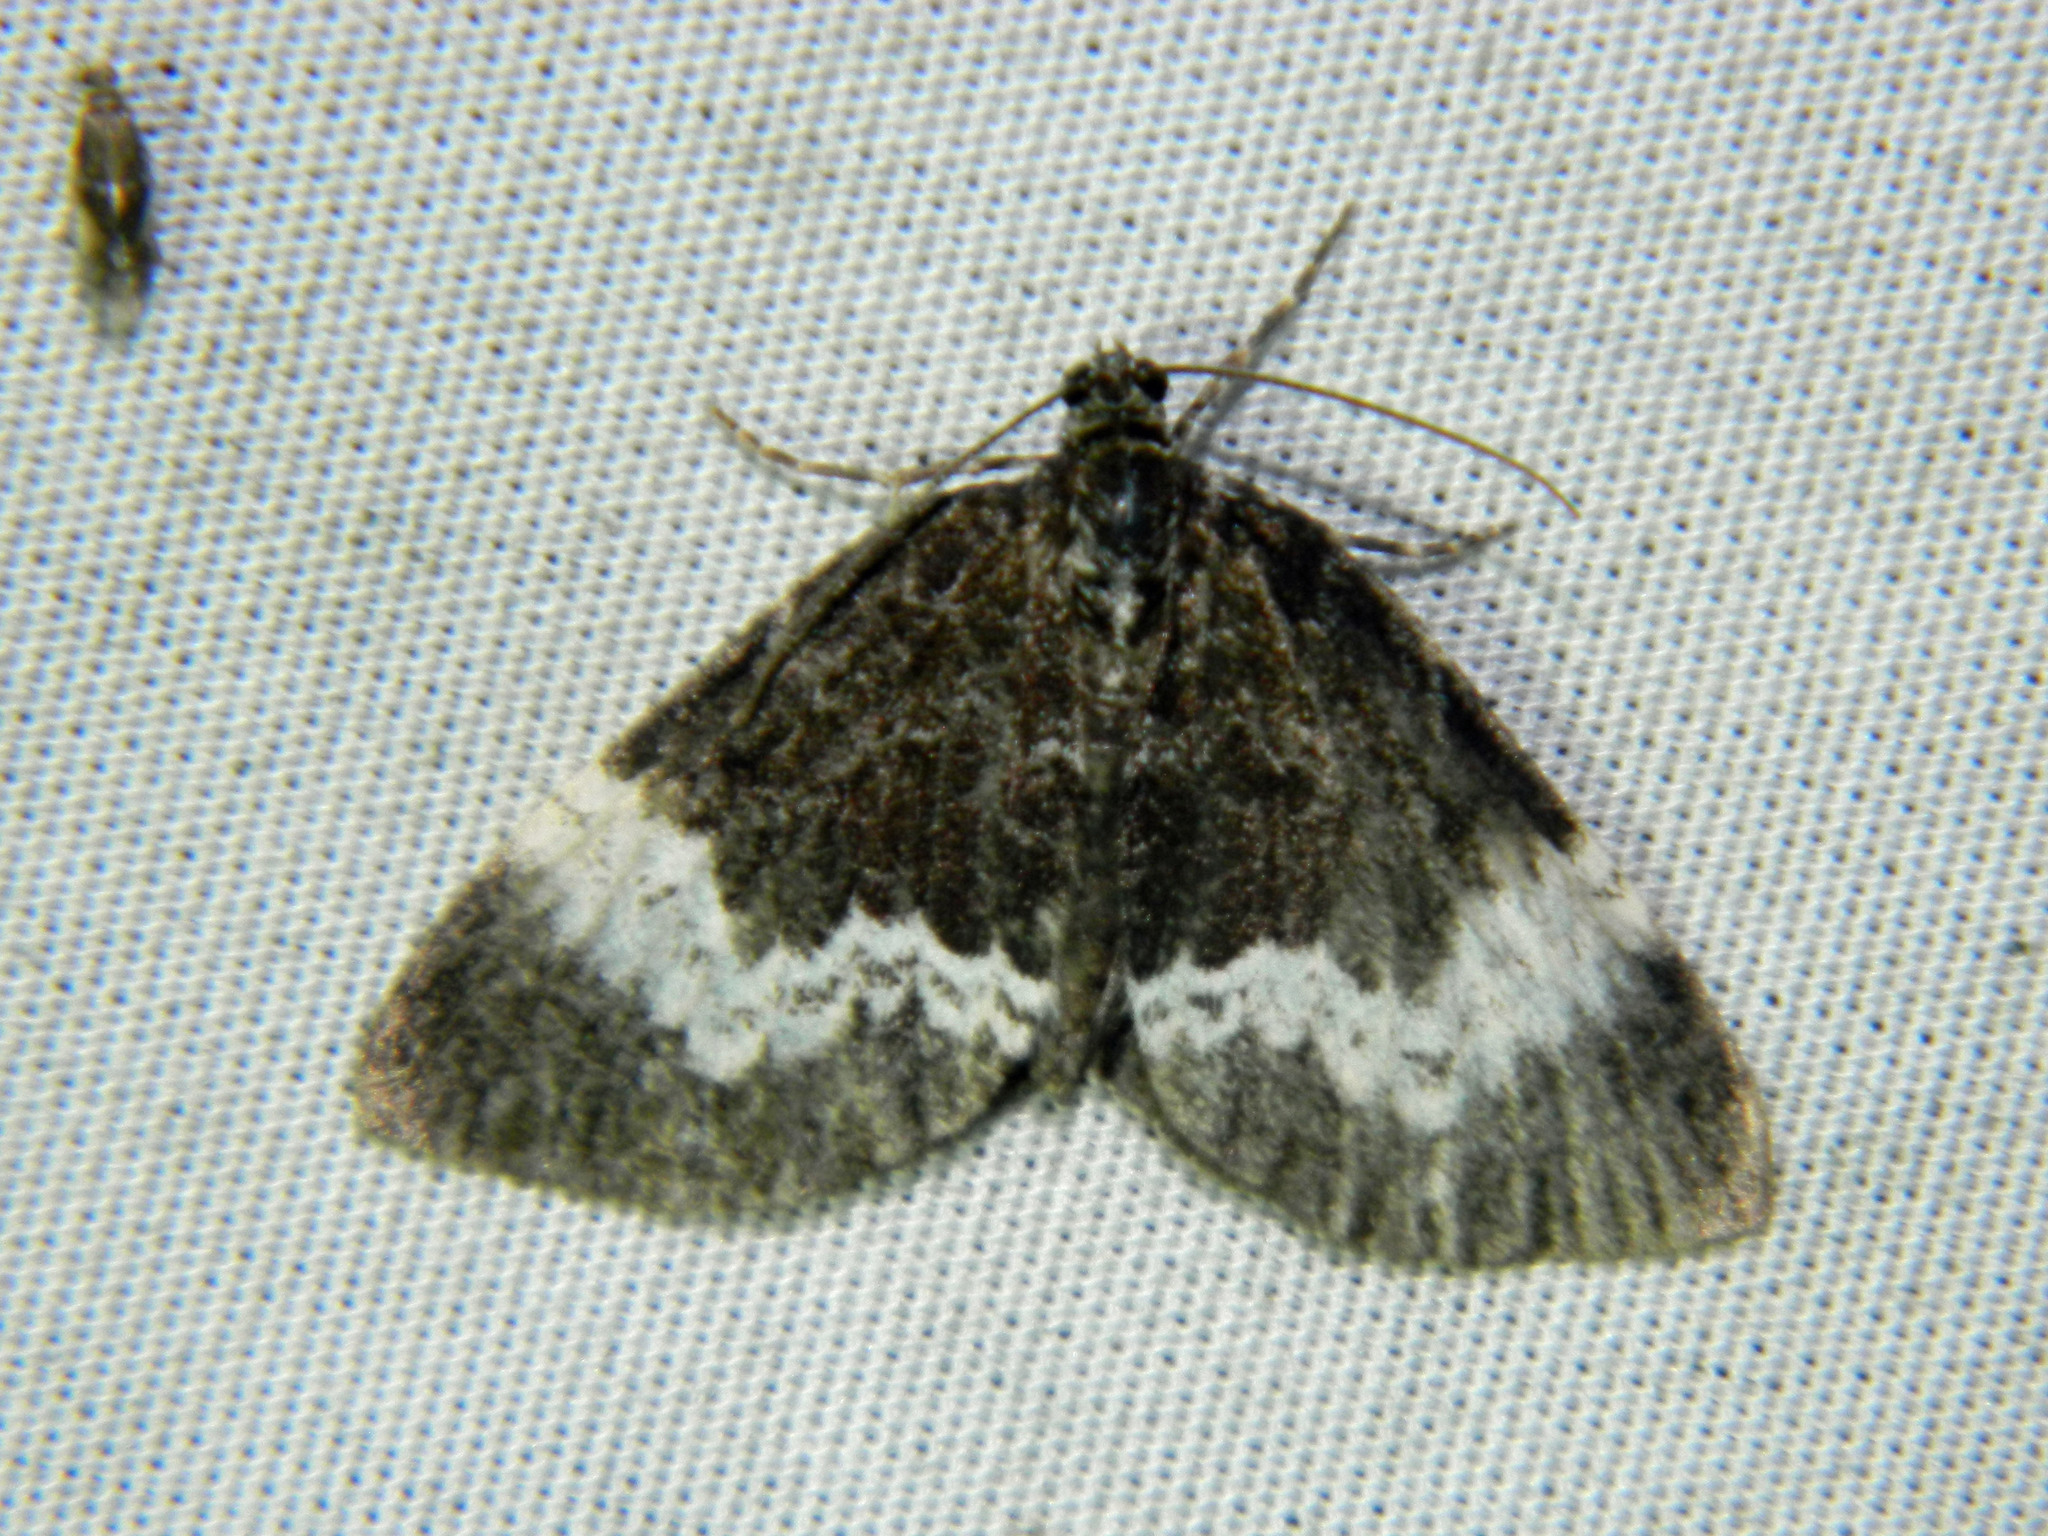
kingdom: Animalia
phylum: Arthropoda
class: Insecta
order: Lepidoptera
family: Geometridae
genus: Spargania
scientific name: Spargania luctuata
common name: White-banded carpet
